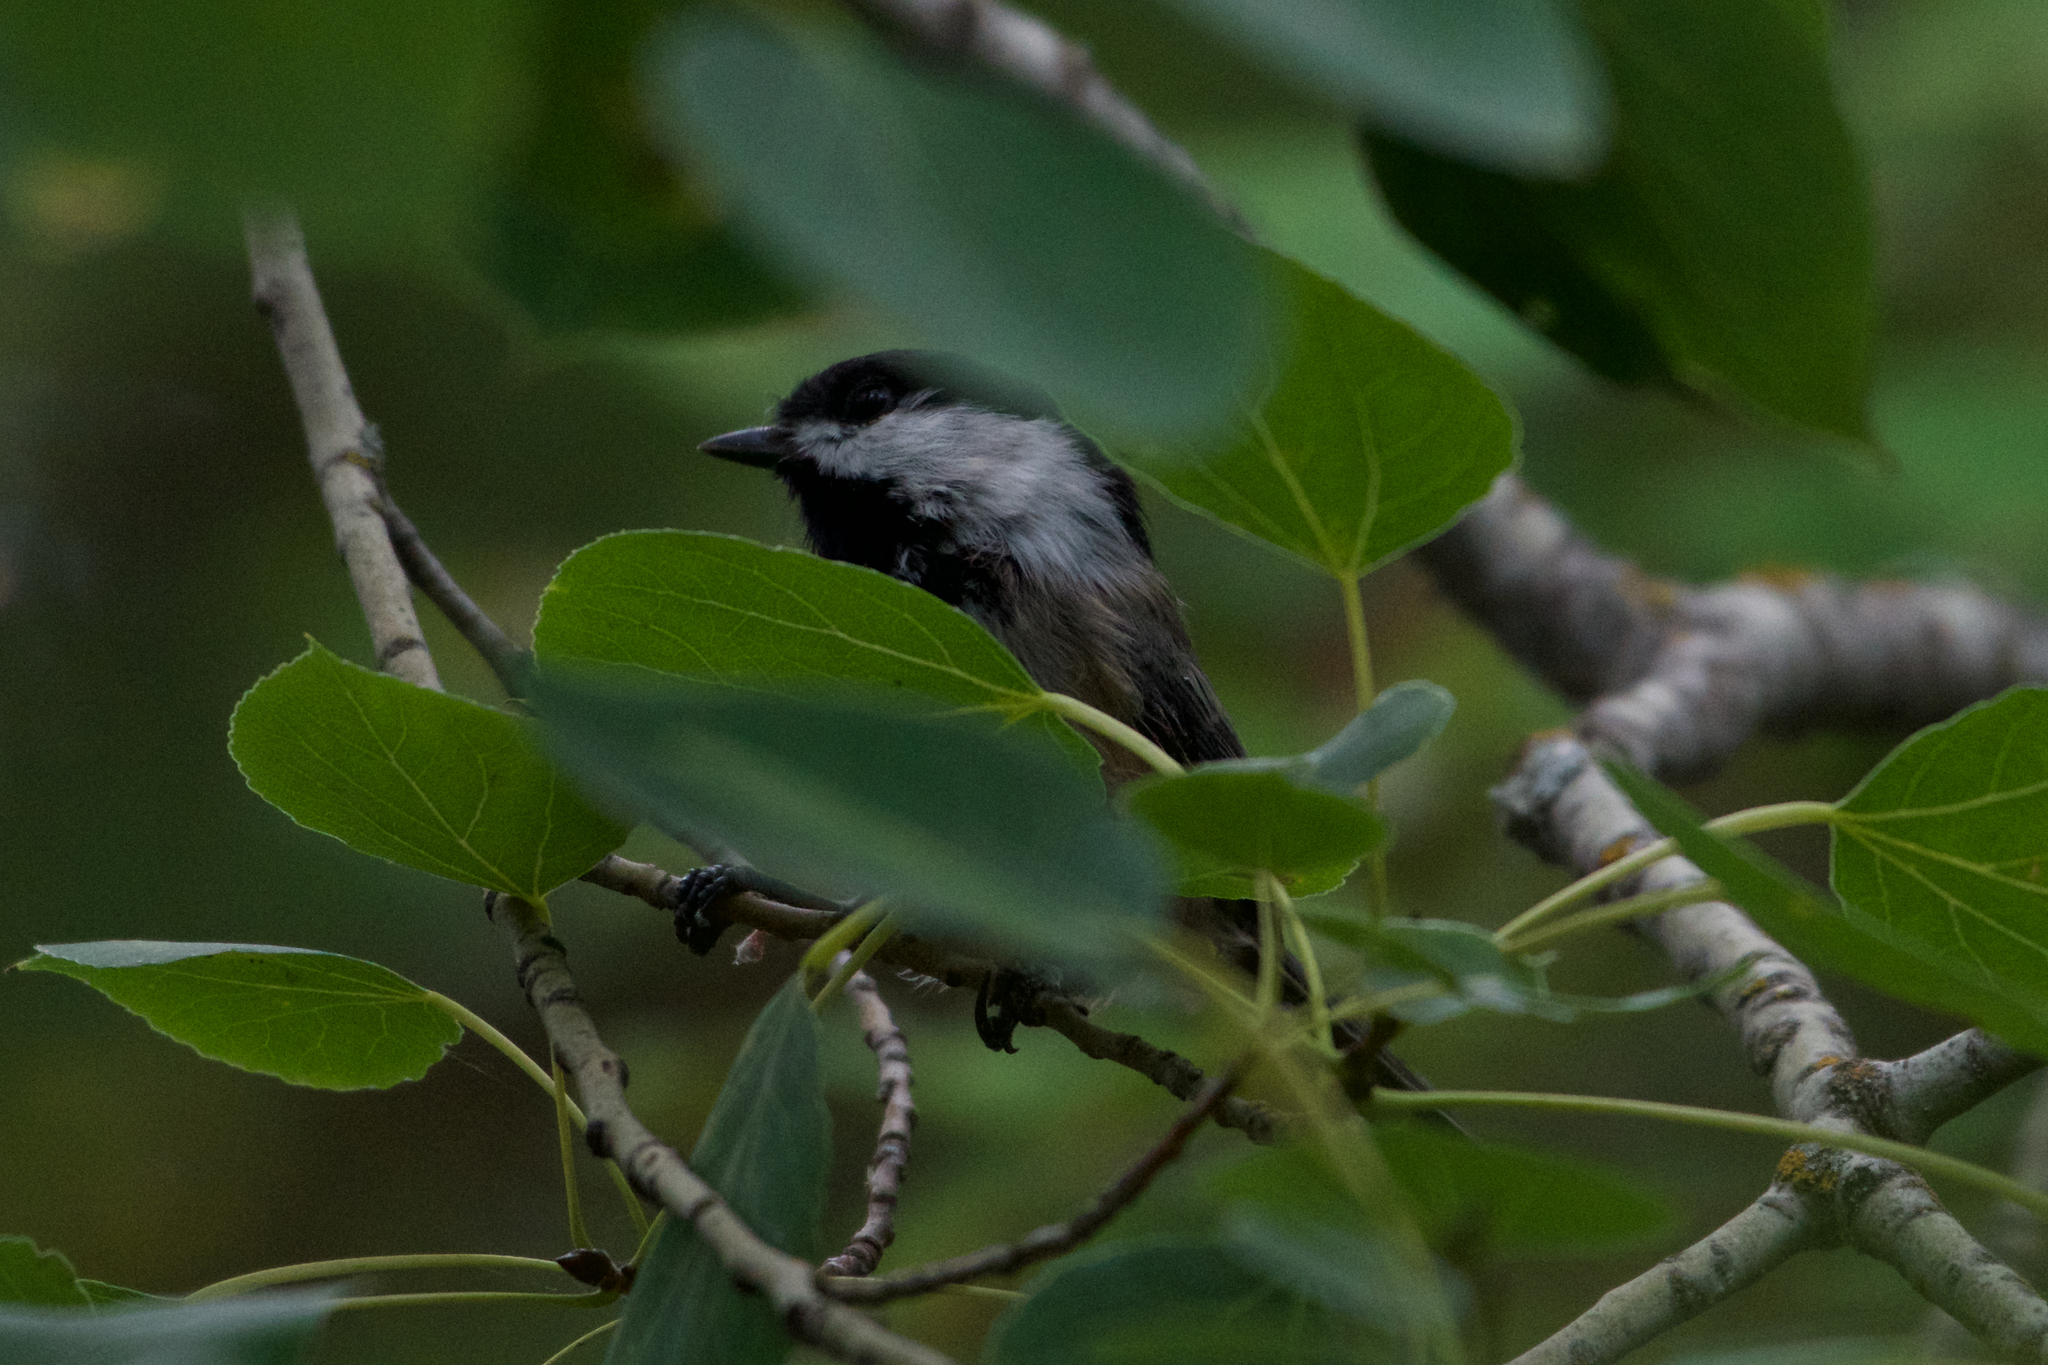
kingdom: Animalia
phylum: Chordata
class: Aves
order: Passeriformes
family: Paridae
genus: Poecile
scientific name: Poecile atricapillus
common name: Black-capped chickadee
